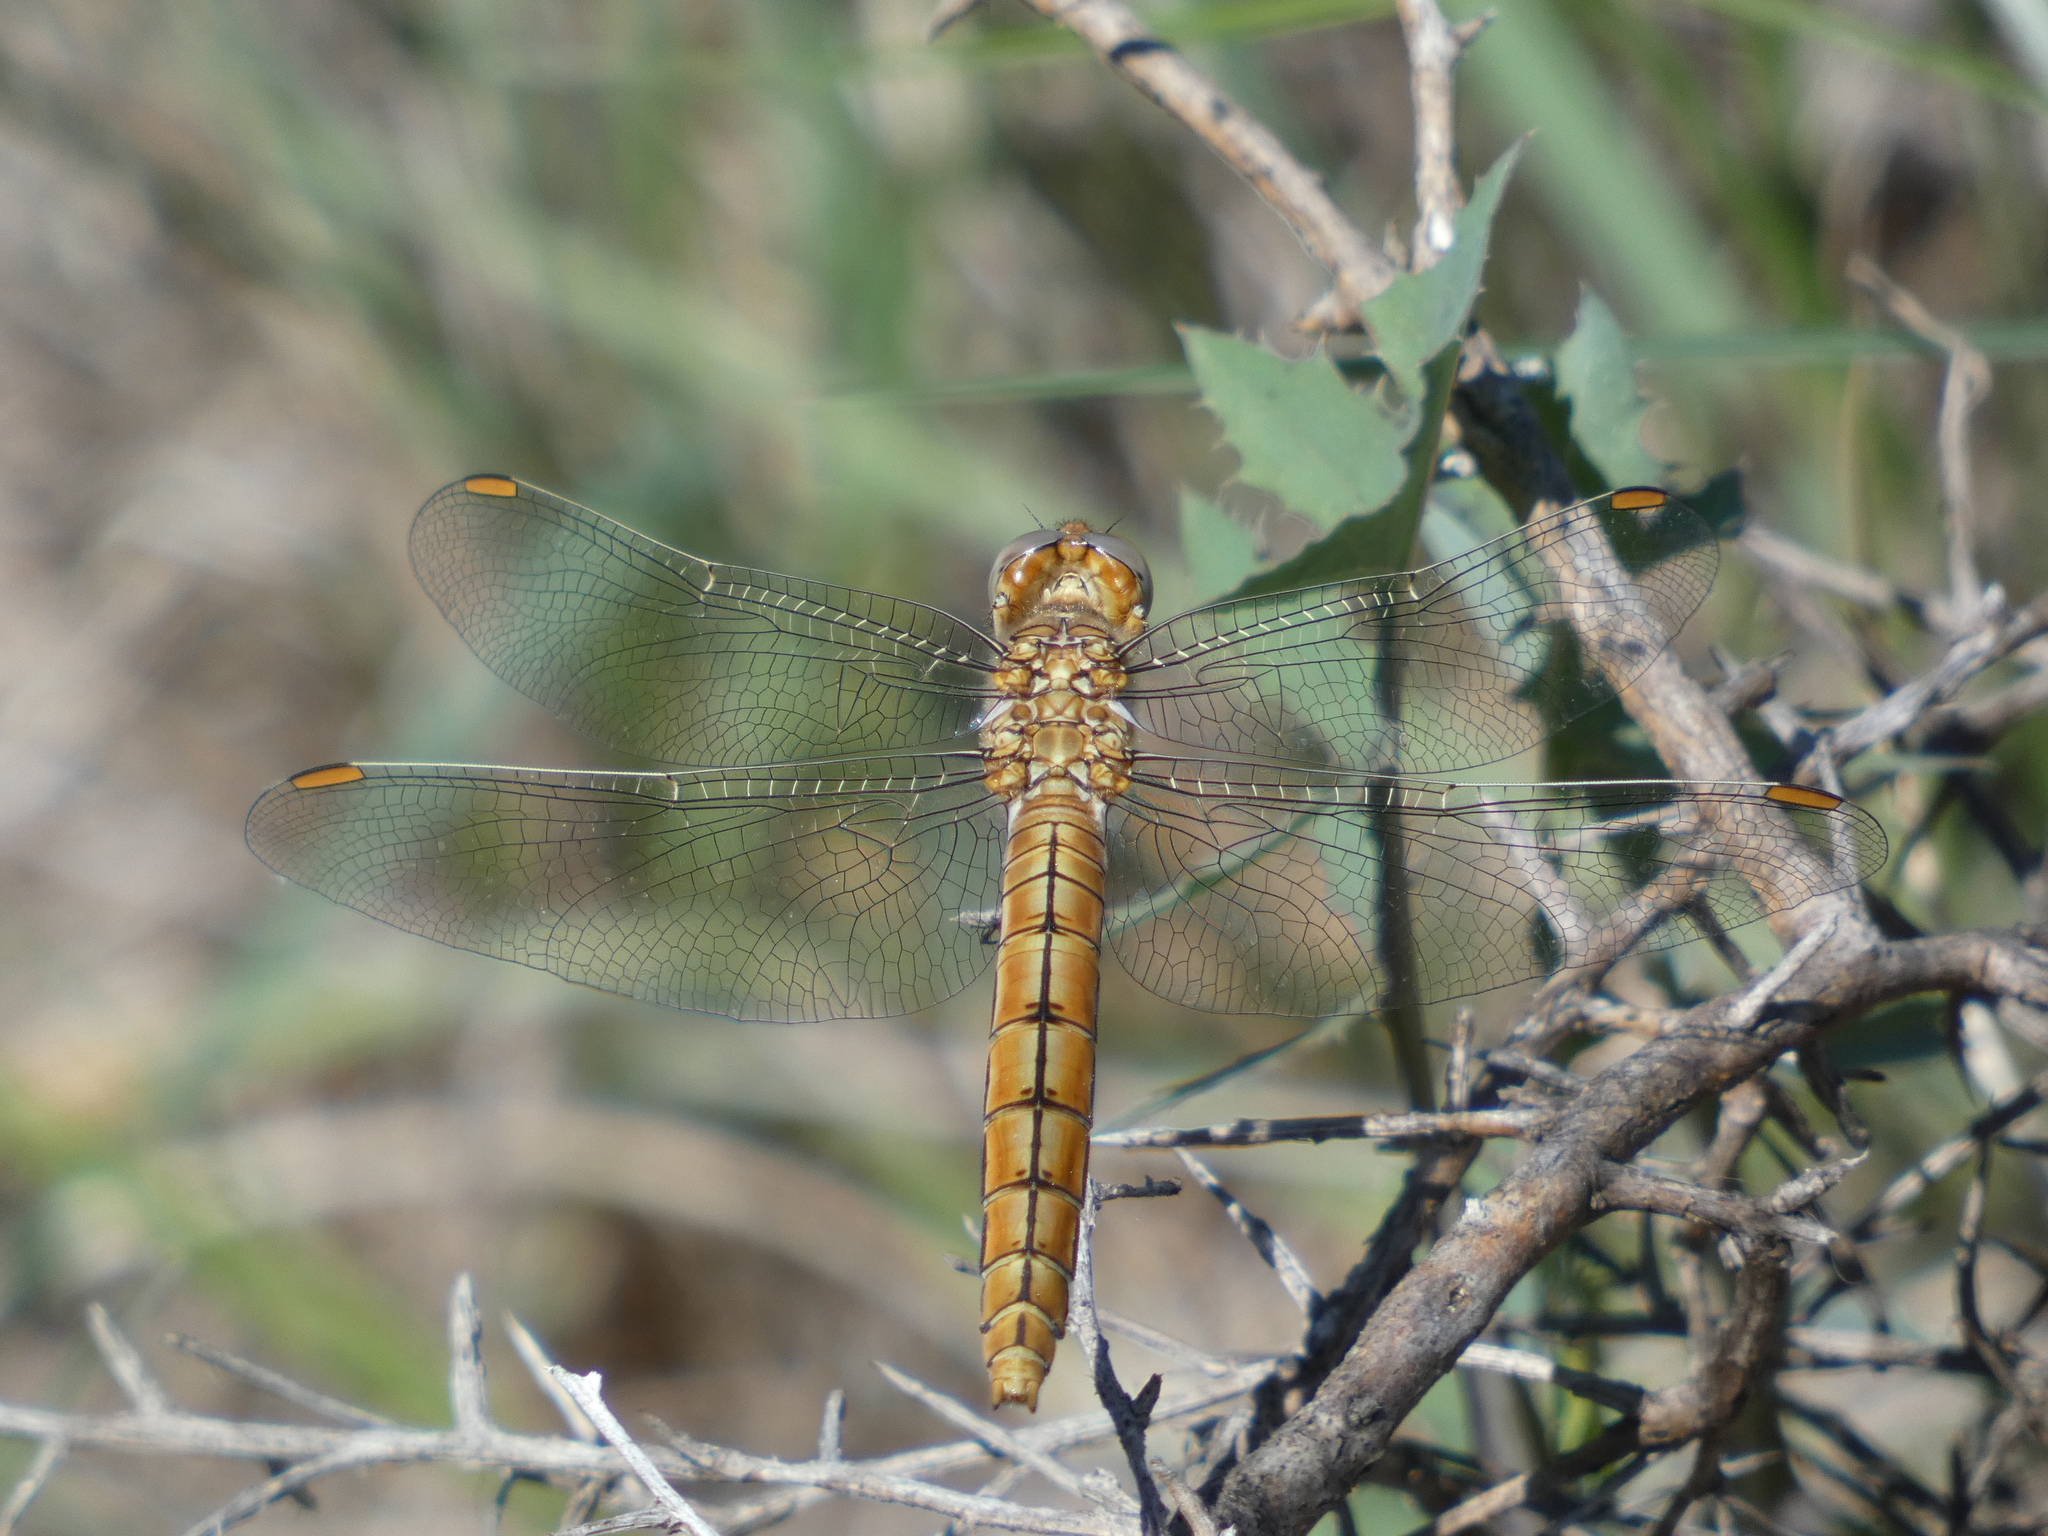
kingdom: Animalia
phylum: Arthropoda
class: Insecta
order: Odonata
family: Libellulidae
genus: Orthetrum
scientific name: Orthetrum brunneum
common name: Southern skimmer
